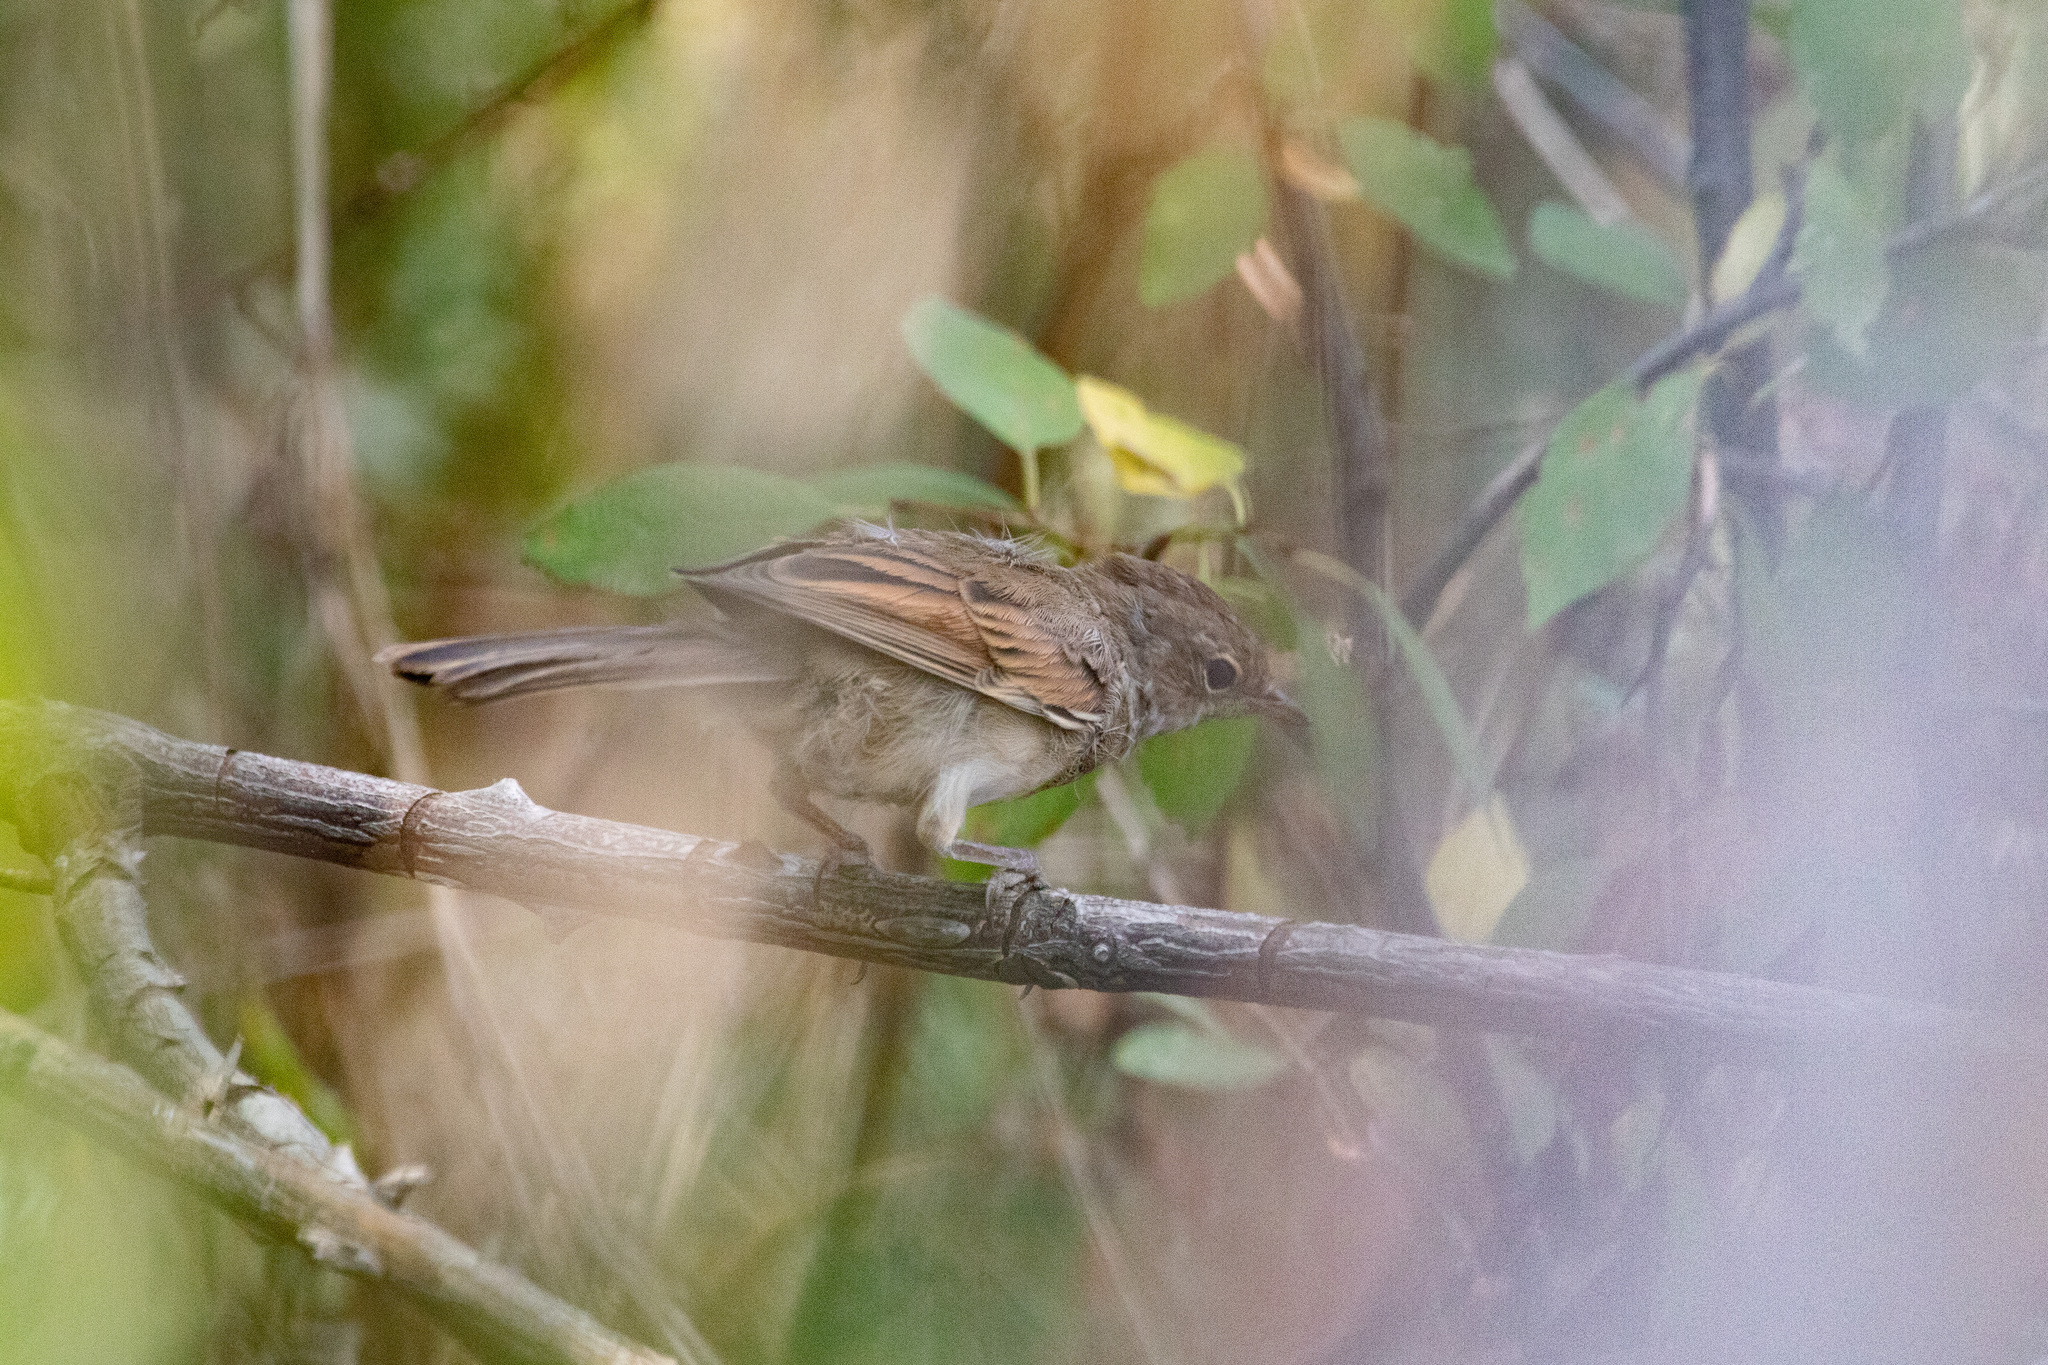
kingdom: Animalia
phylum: Chordata
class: Aves
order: Passeriformes
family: Sylviidae
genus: Sylvia
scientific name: Sylvia communis
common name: Common whitethroat
